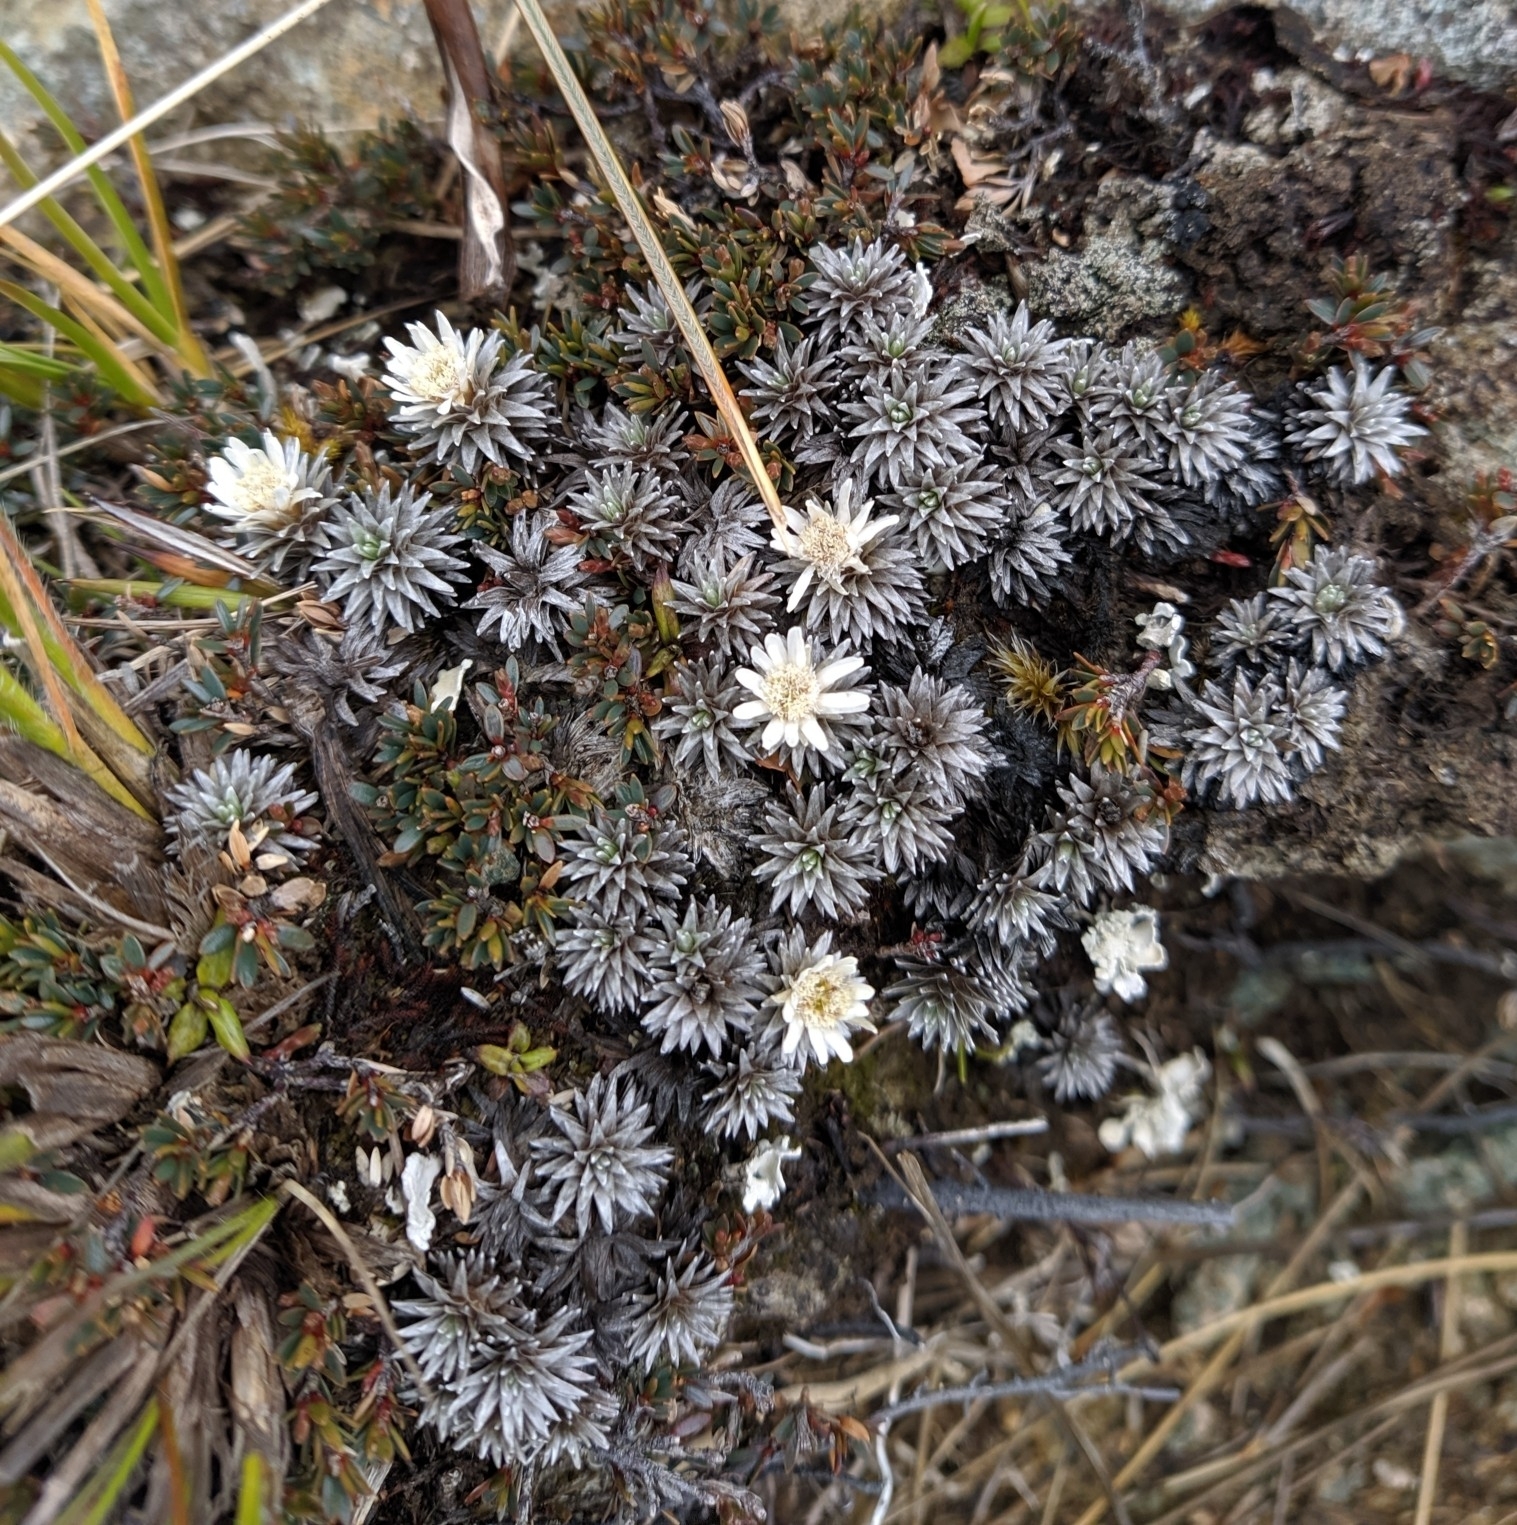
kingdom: Plantae
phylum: Tracheophyta
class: Magnoliopsida
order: Asterales
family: Asteraceae
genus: Raoulia
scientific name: Raoulia grandiflora
